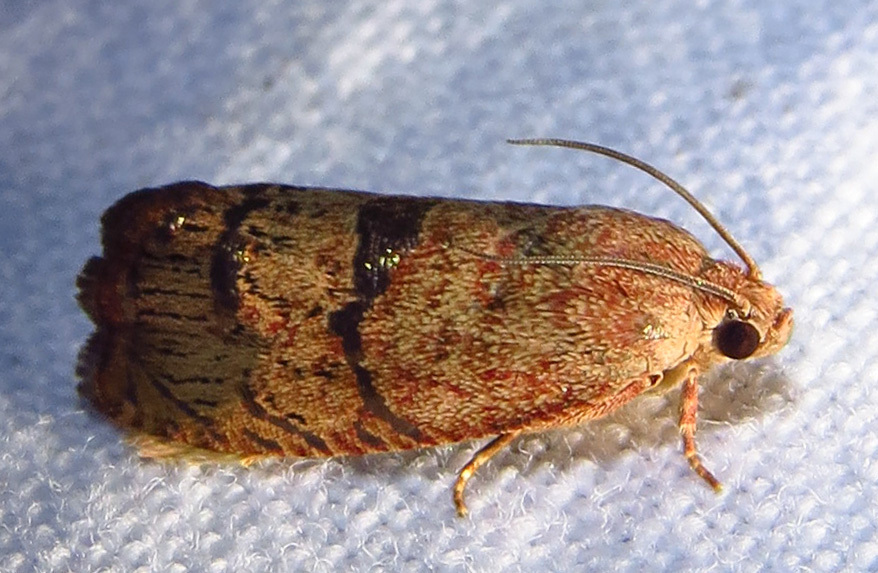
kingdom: Animalia
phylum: Arthropoda
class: Insecta
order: Lepidoptera
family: Tortricidae
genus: Cydia
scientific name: Cydia latiferreana
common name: Filbertworm moth
